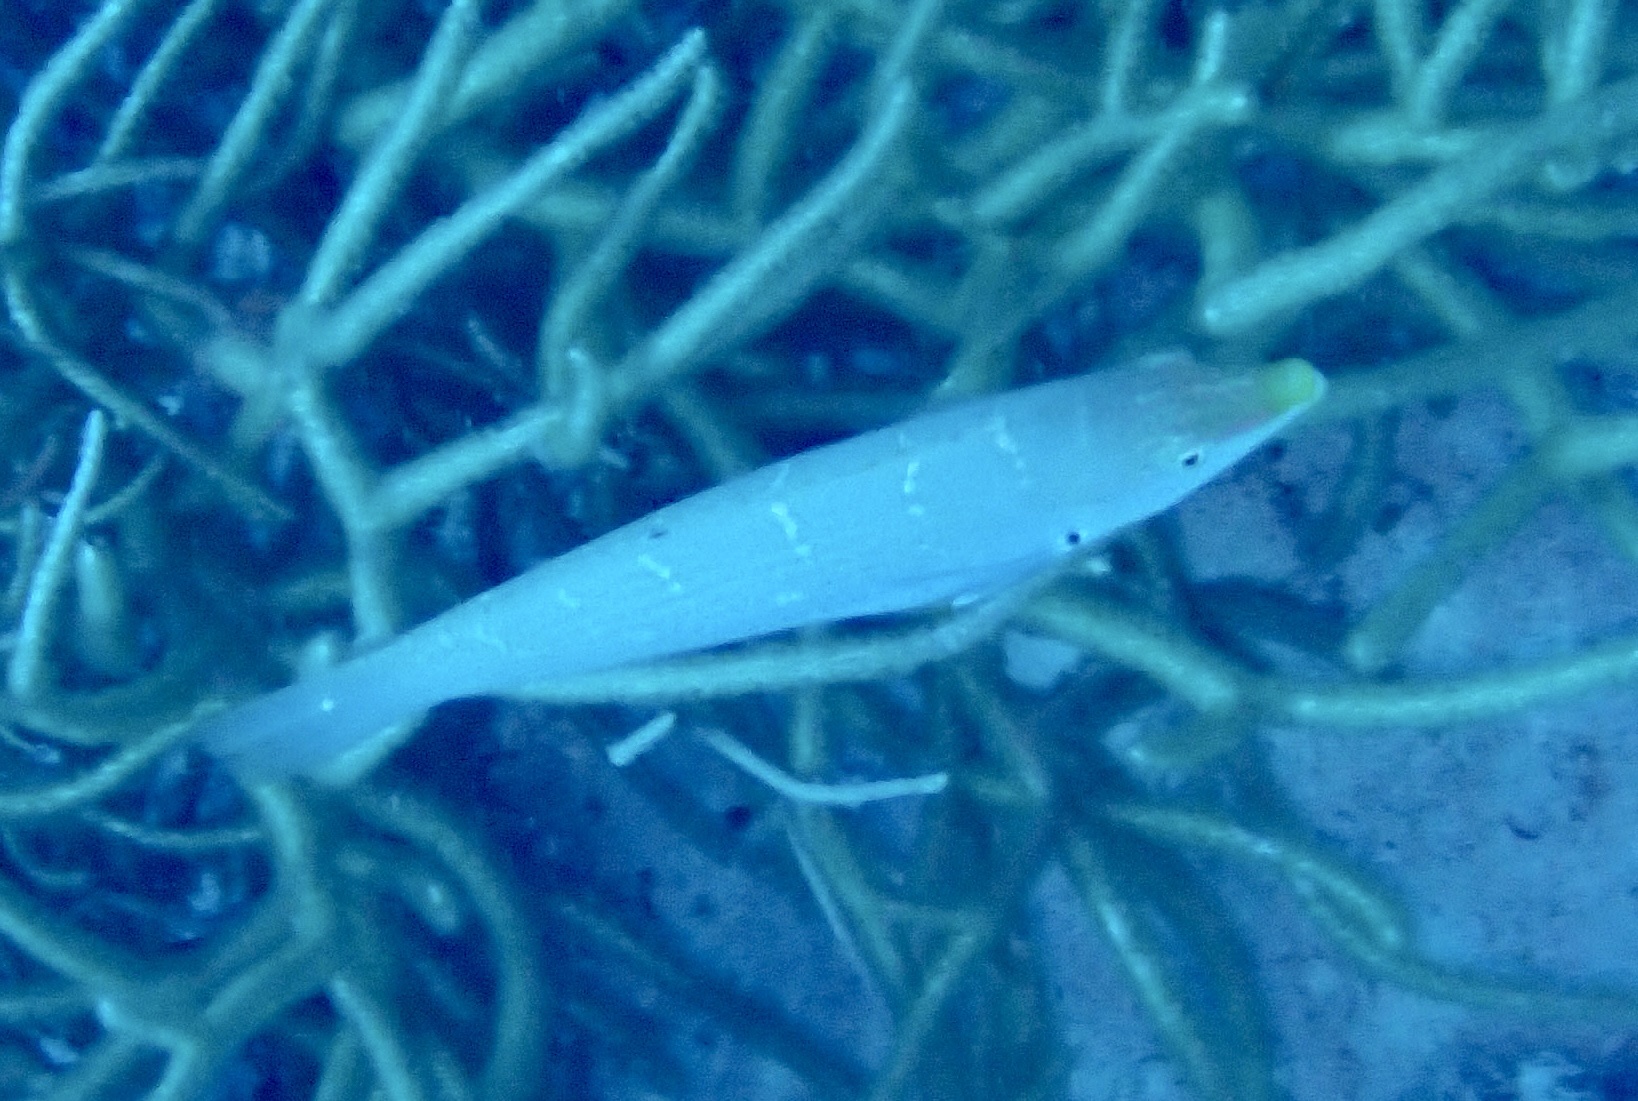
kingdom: Animalia
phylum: Chordata
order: Perciformes
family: Labridae
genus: Coris
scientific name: Coris variegata
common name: Dapple coris
